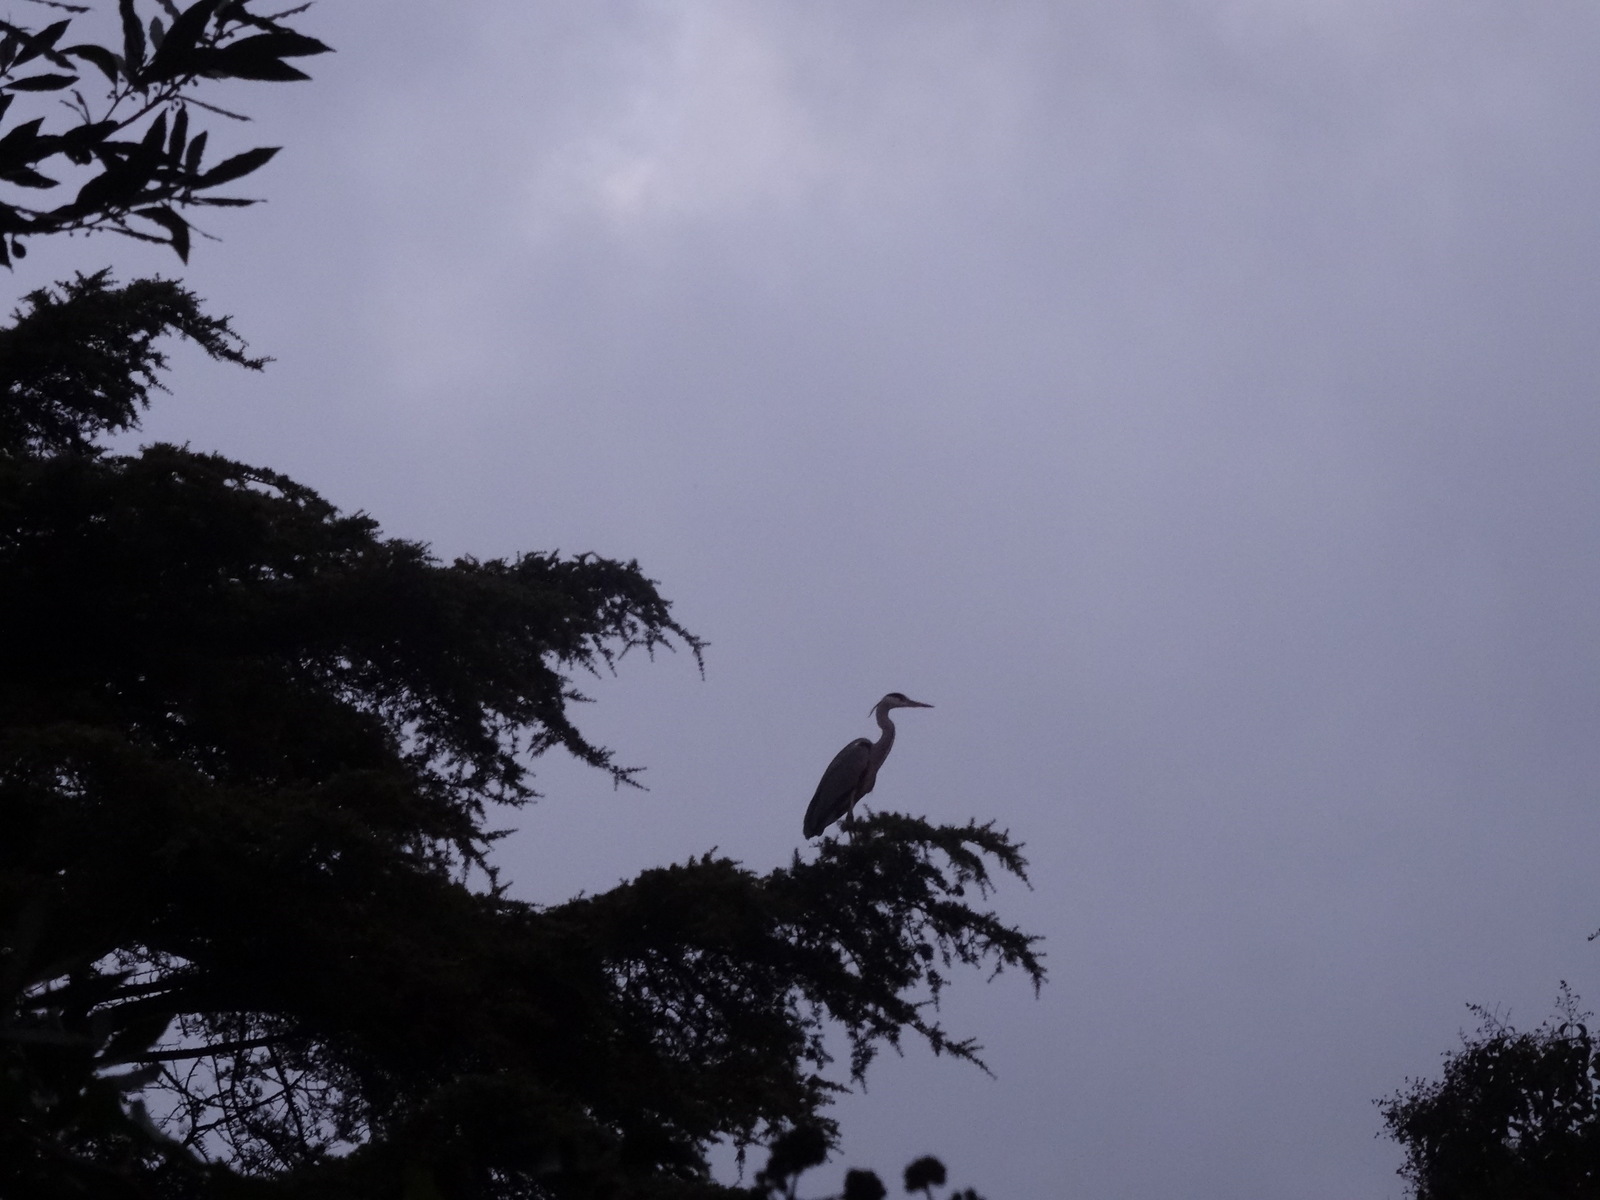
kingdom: Animalia
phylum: Chordata
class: Aves
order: Pelecaniformes
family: Ardeidae
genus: Ardea
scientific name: Ardea cinerea
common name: Grey heron
